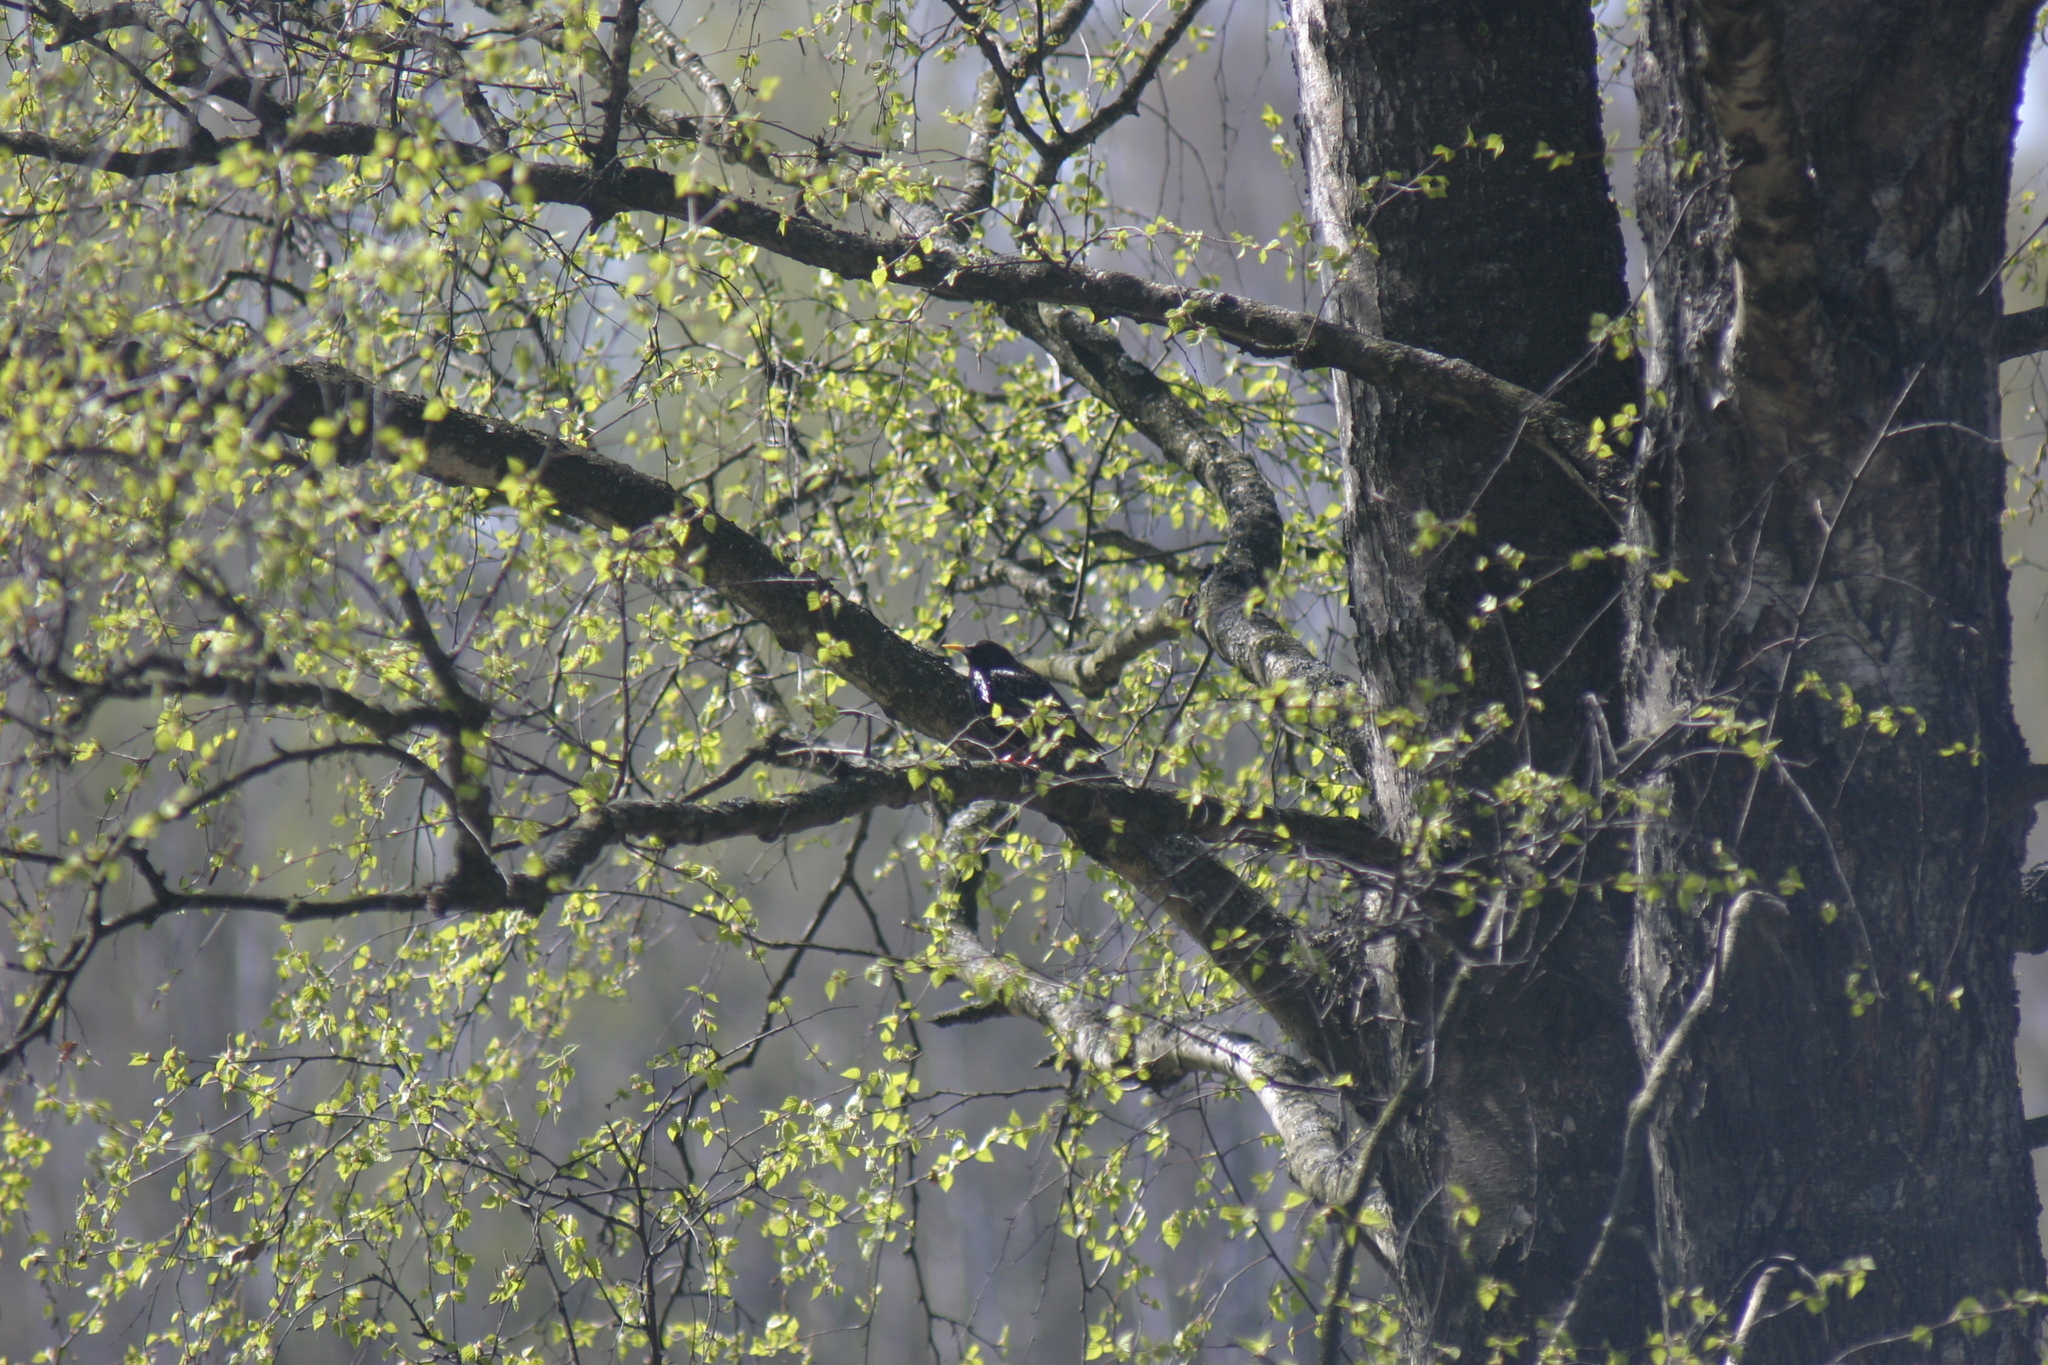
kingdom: Animalia
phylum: Chordata
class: Aves
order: Passeriformes
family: Sturnidae
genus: Sturnus
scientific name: Sturnus vulgaris
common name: Common starling
